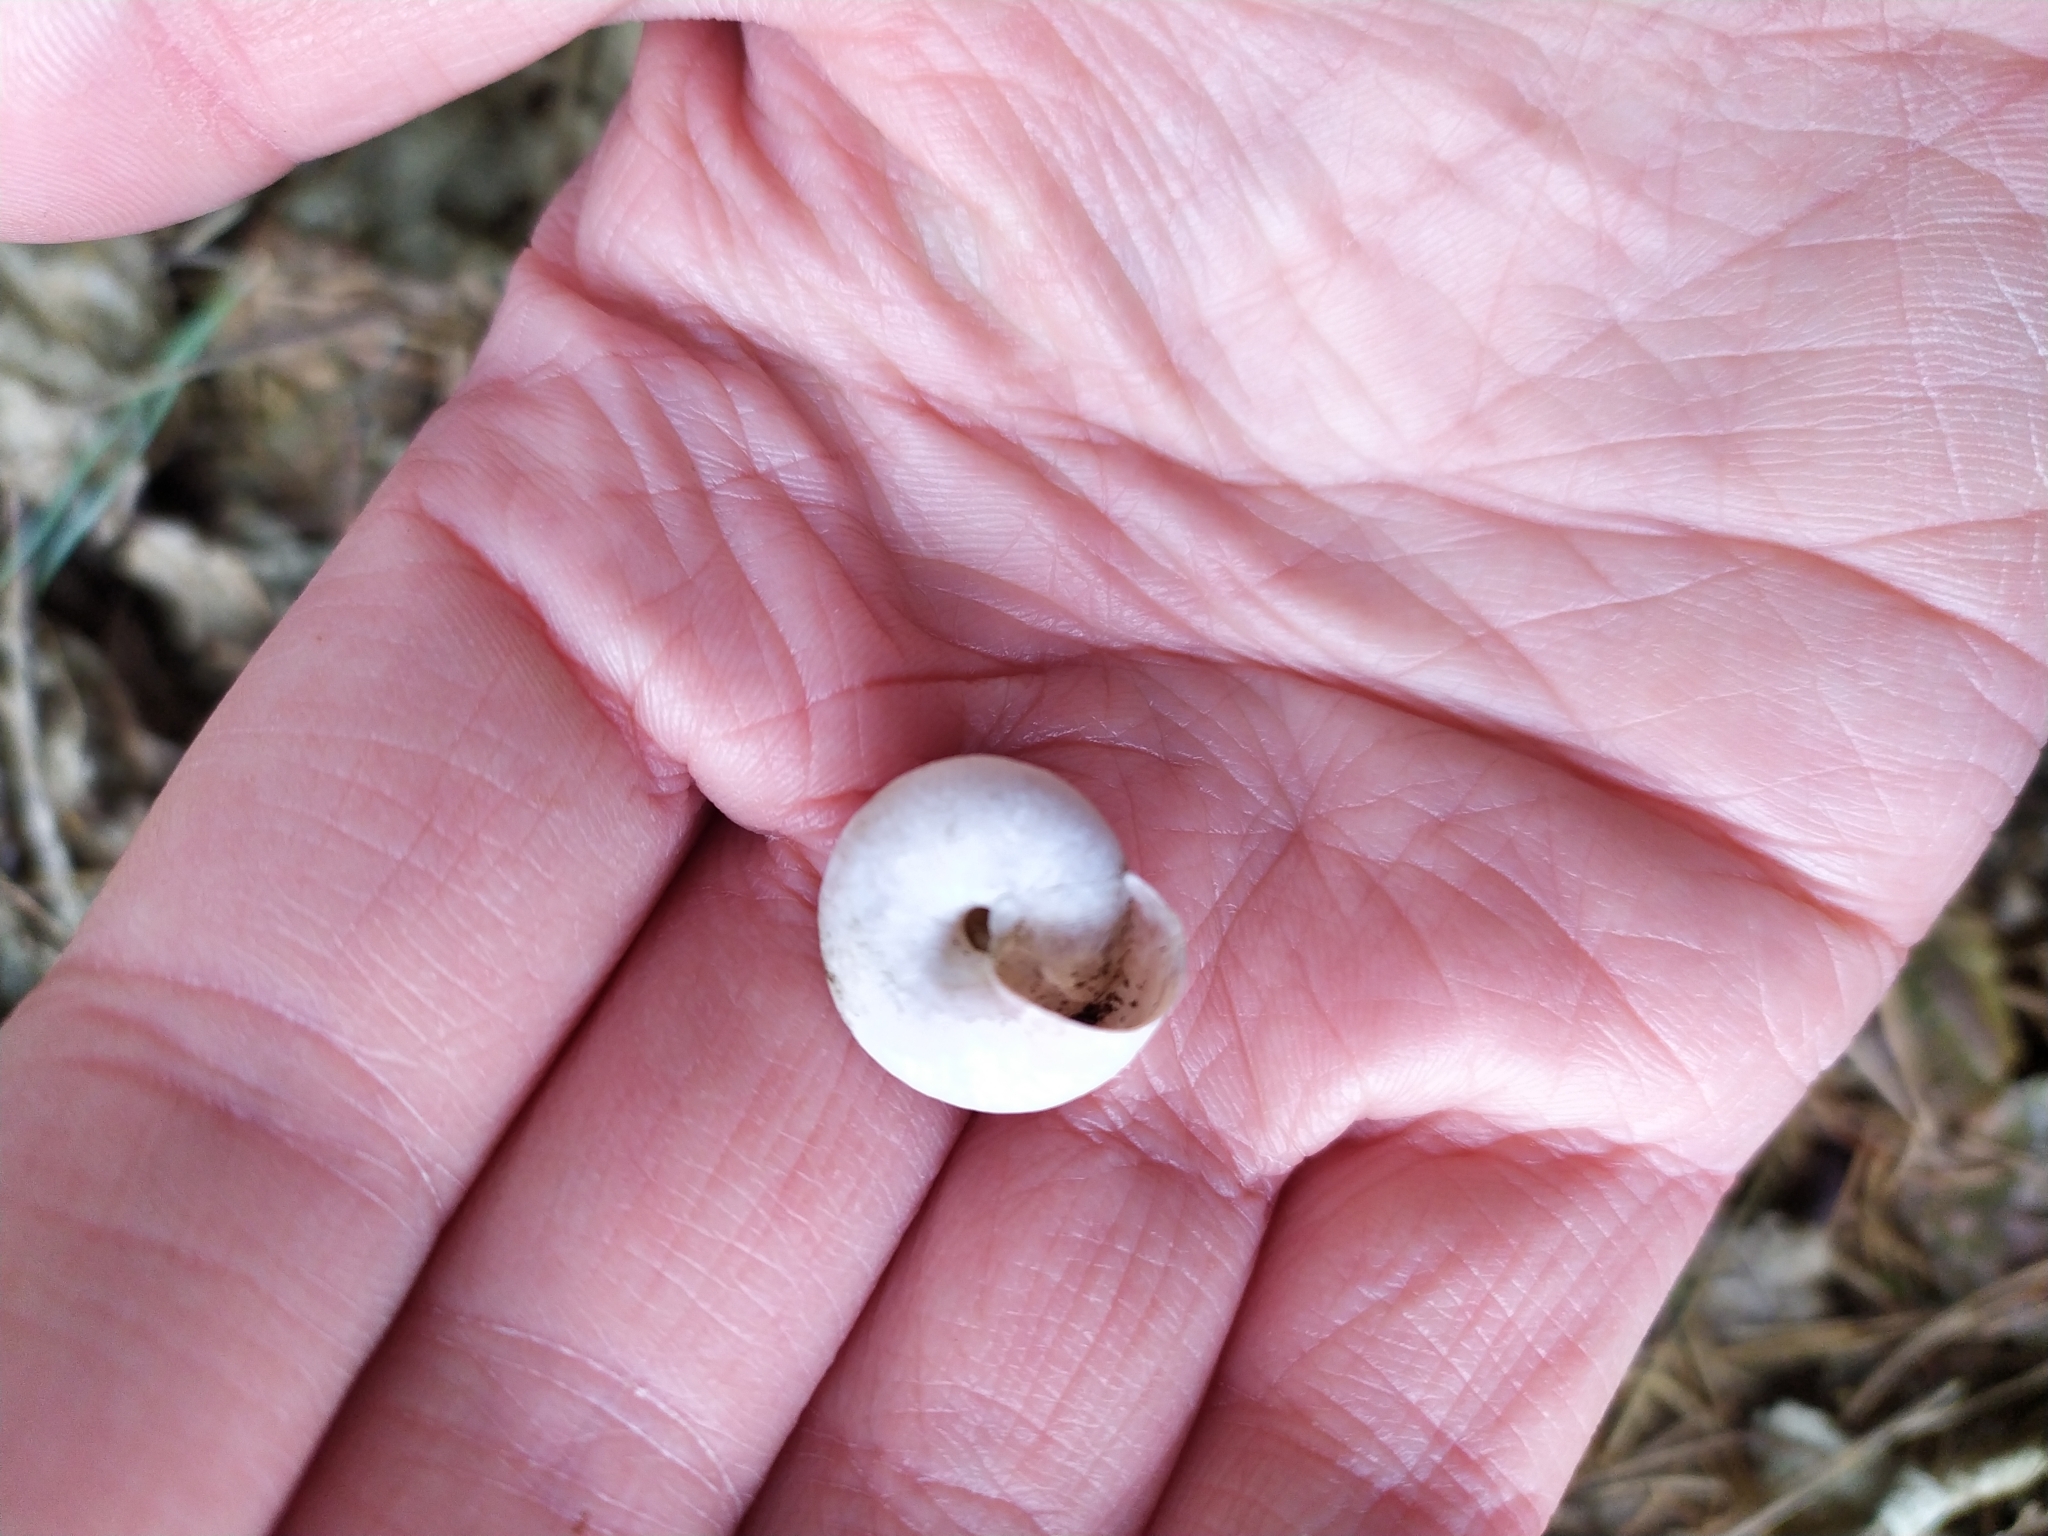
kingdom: Animalia
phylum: Mollusca
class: Gastropoda
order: Stylommatophora
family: Camaenidae
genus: Fruticicola
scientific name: Fruticicola fruticum
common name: Bush snail
